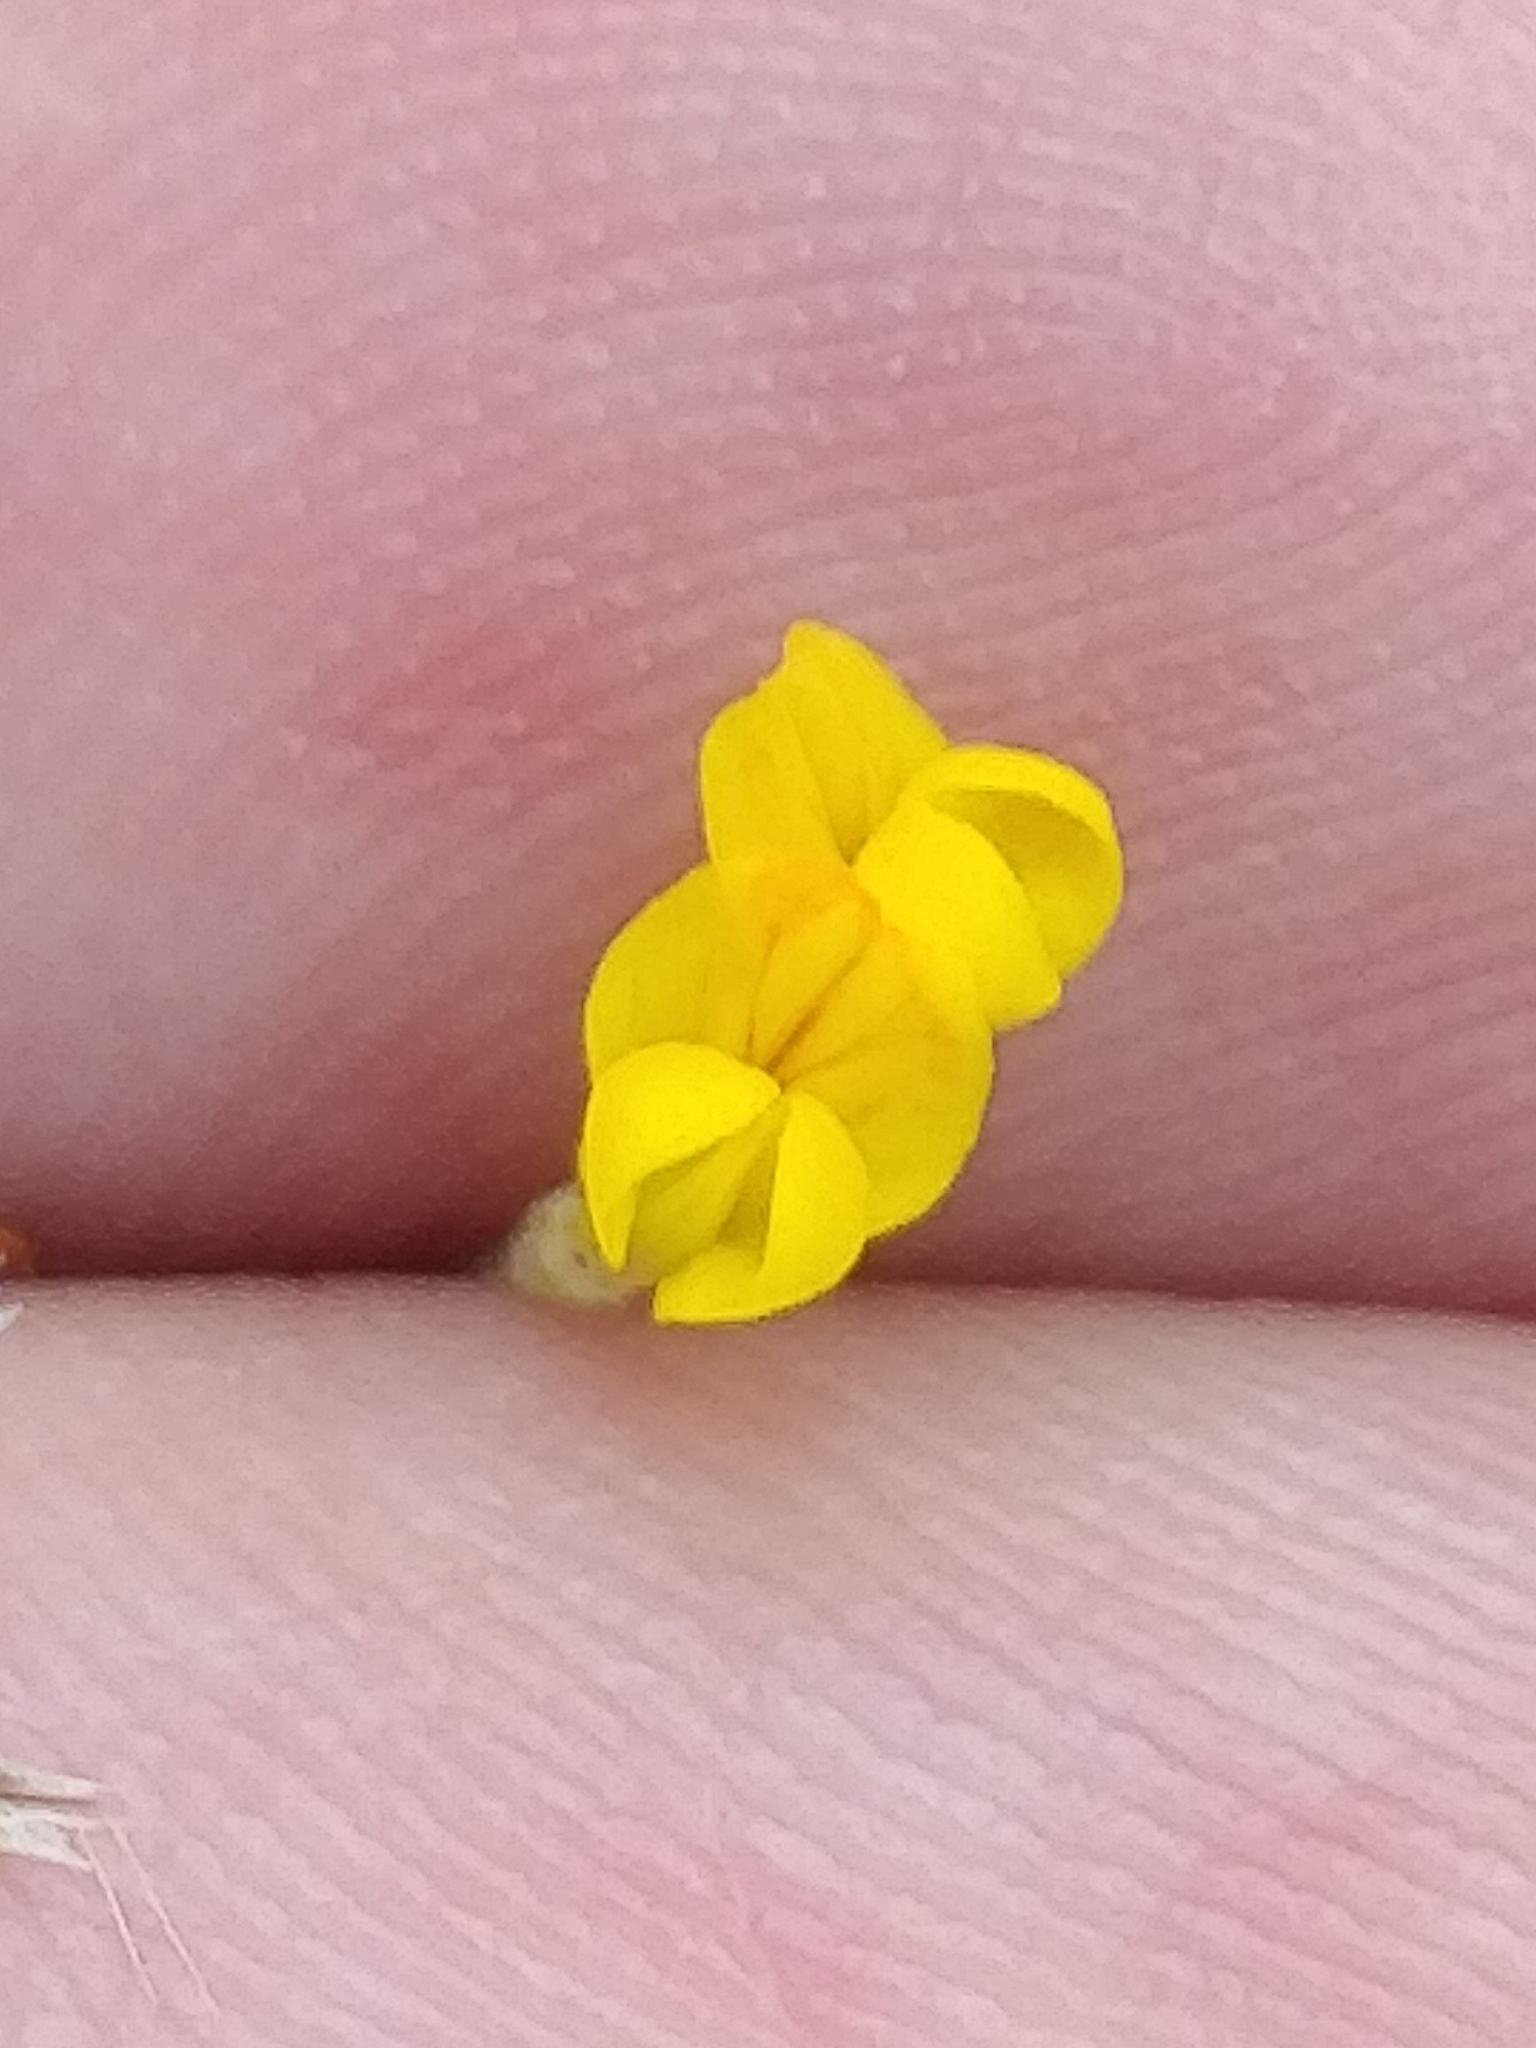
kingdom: Plantae
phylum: Tracheophyta
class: Magnoliopsida
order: Fabales
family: Fabaceae
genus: Ornithopus
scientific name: Ornithopus pinnatus
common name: Orange bird's-foot
